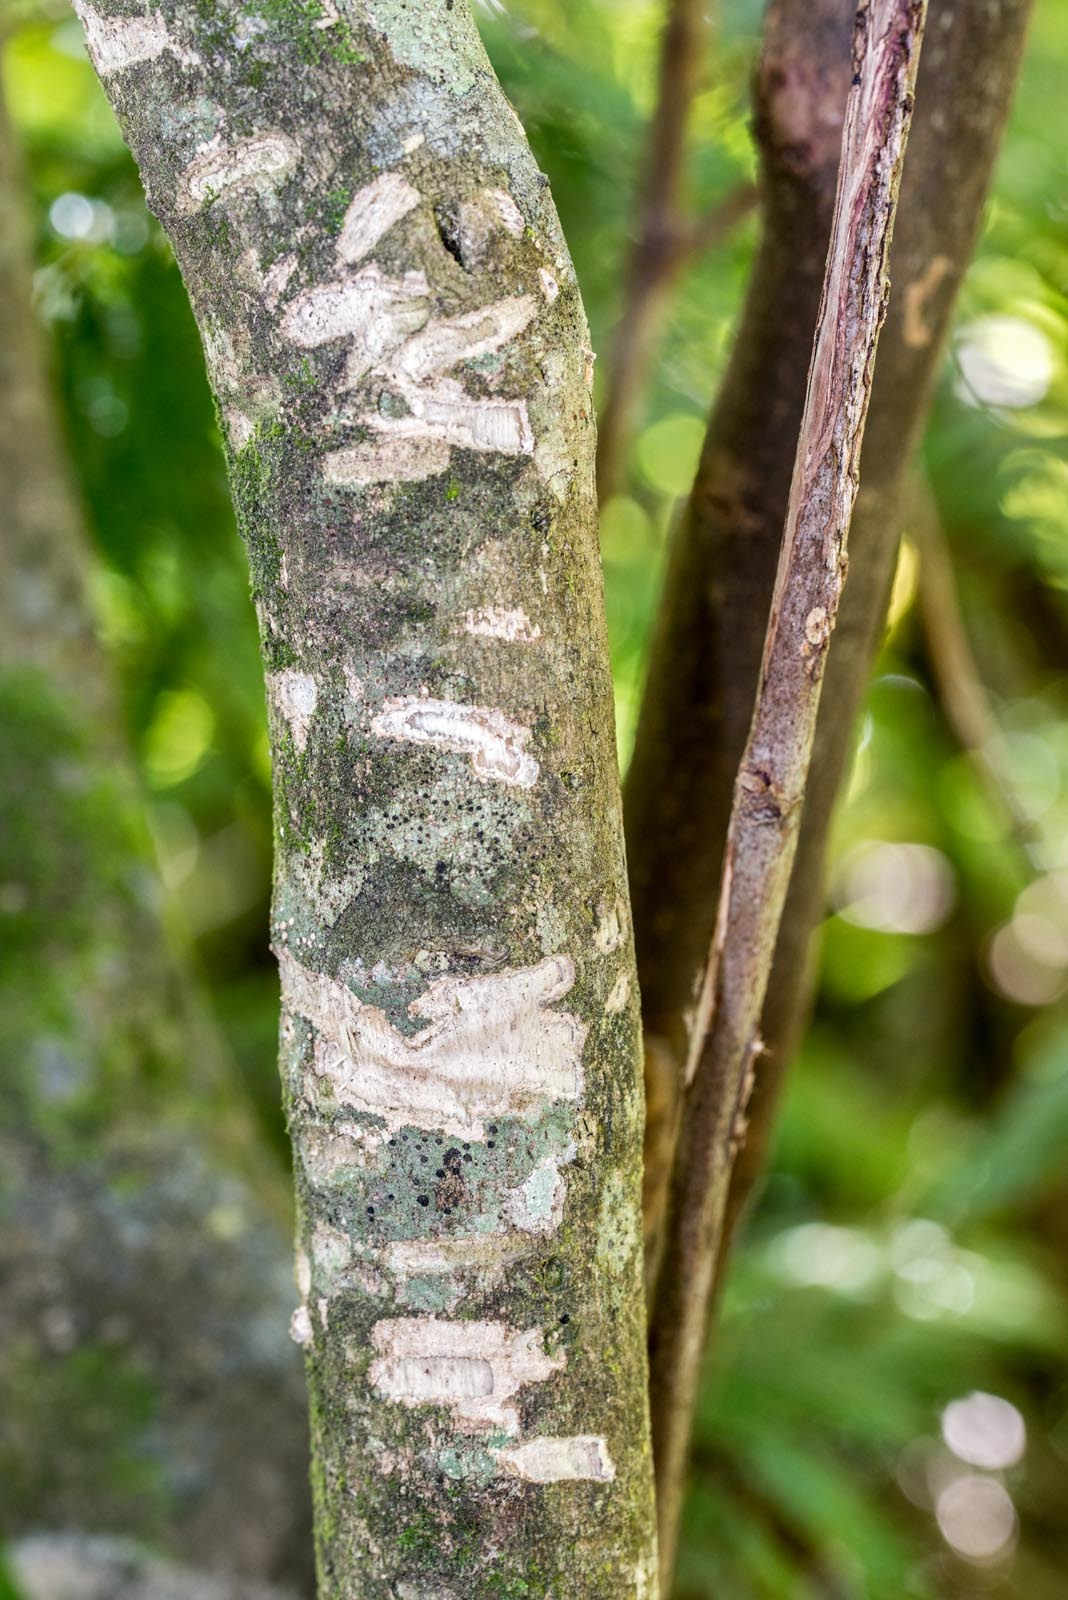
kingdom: Animalia
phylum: Chordata
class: Mammalia
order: Diprotodontia
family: Phalangeridae
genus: Trichosurus
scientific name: Trichosurus vulpecula
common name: Common brushtail
